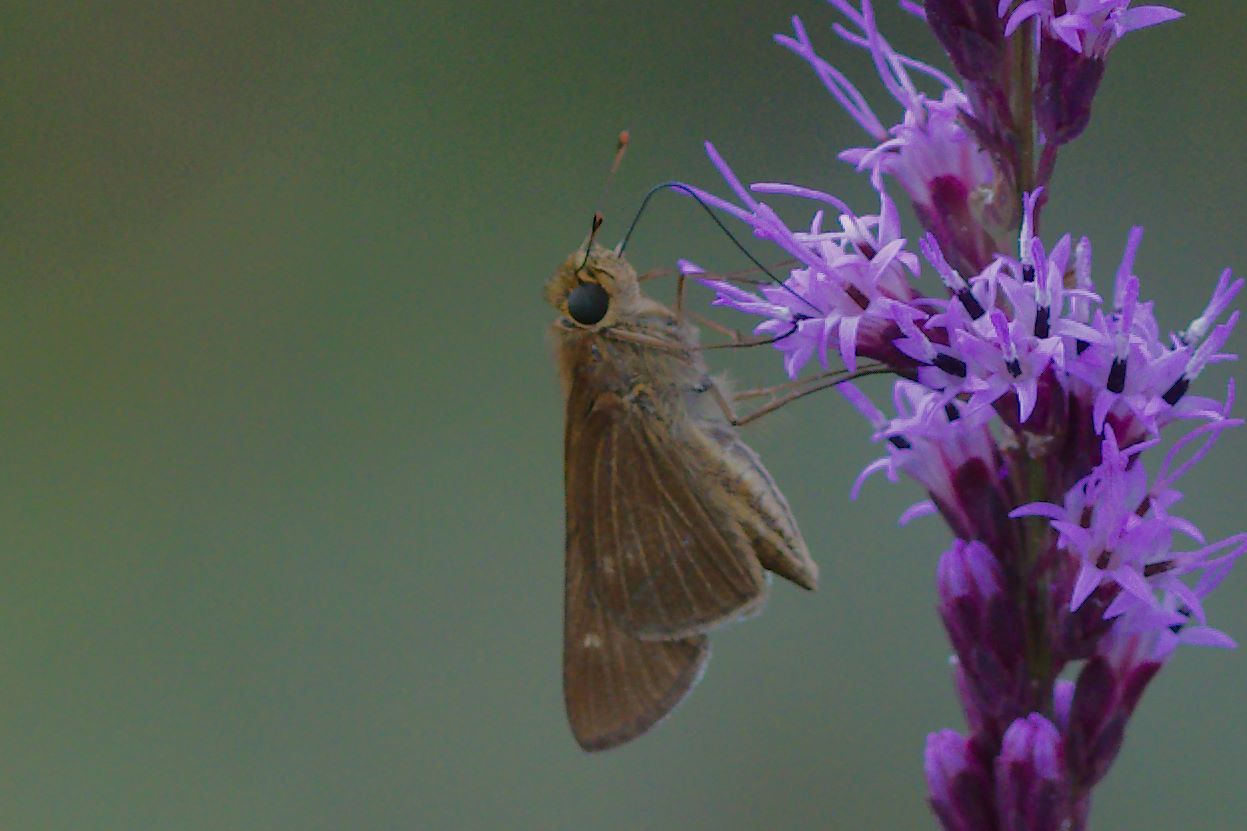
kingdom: Animalia
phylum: Arthropoda
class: Insecta
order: Lepidoptera
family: Hesperiidae
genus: Panoquina
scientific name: Panoquina ocola
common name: Ocola skipper
